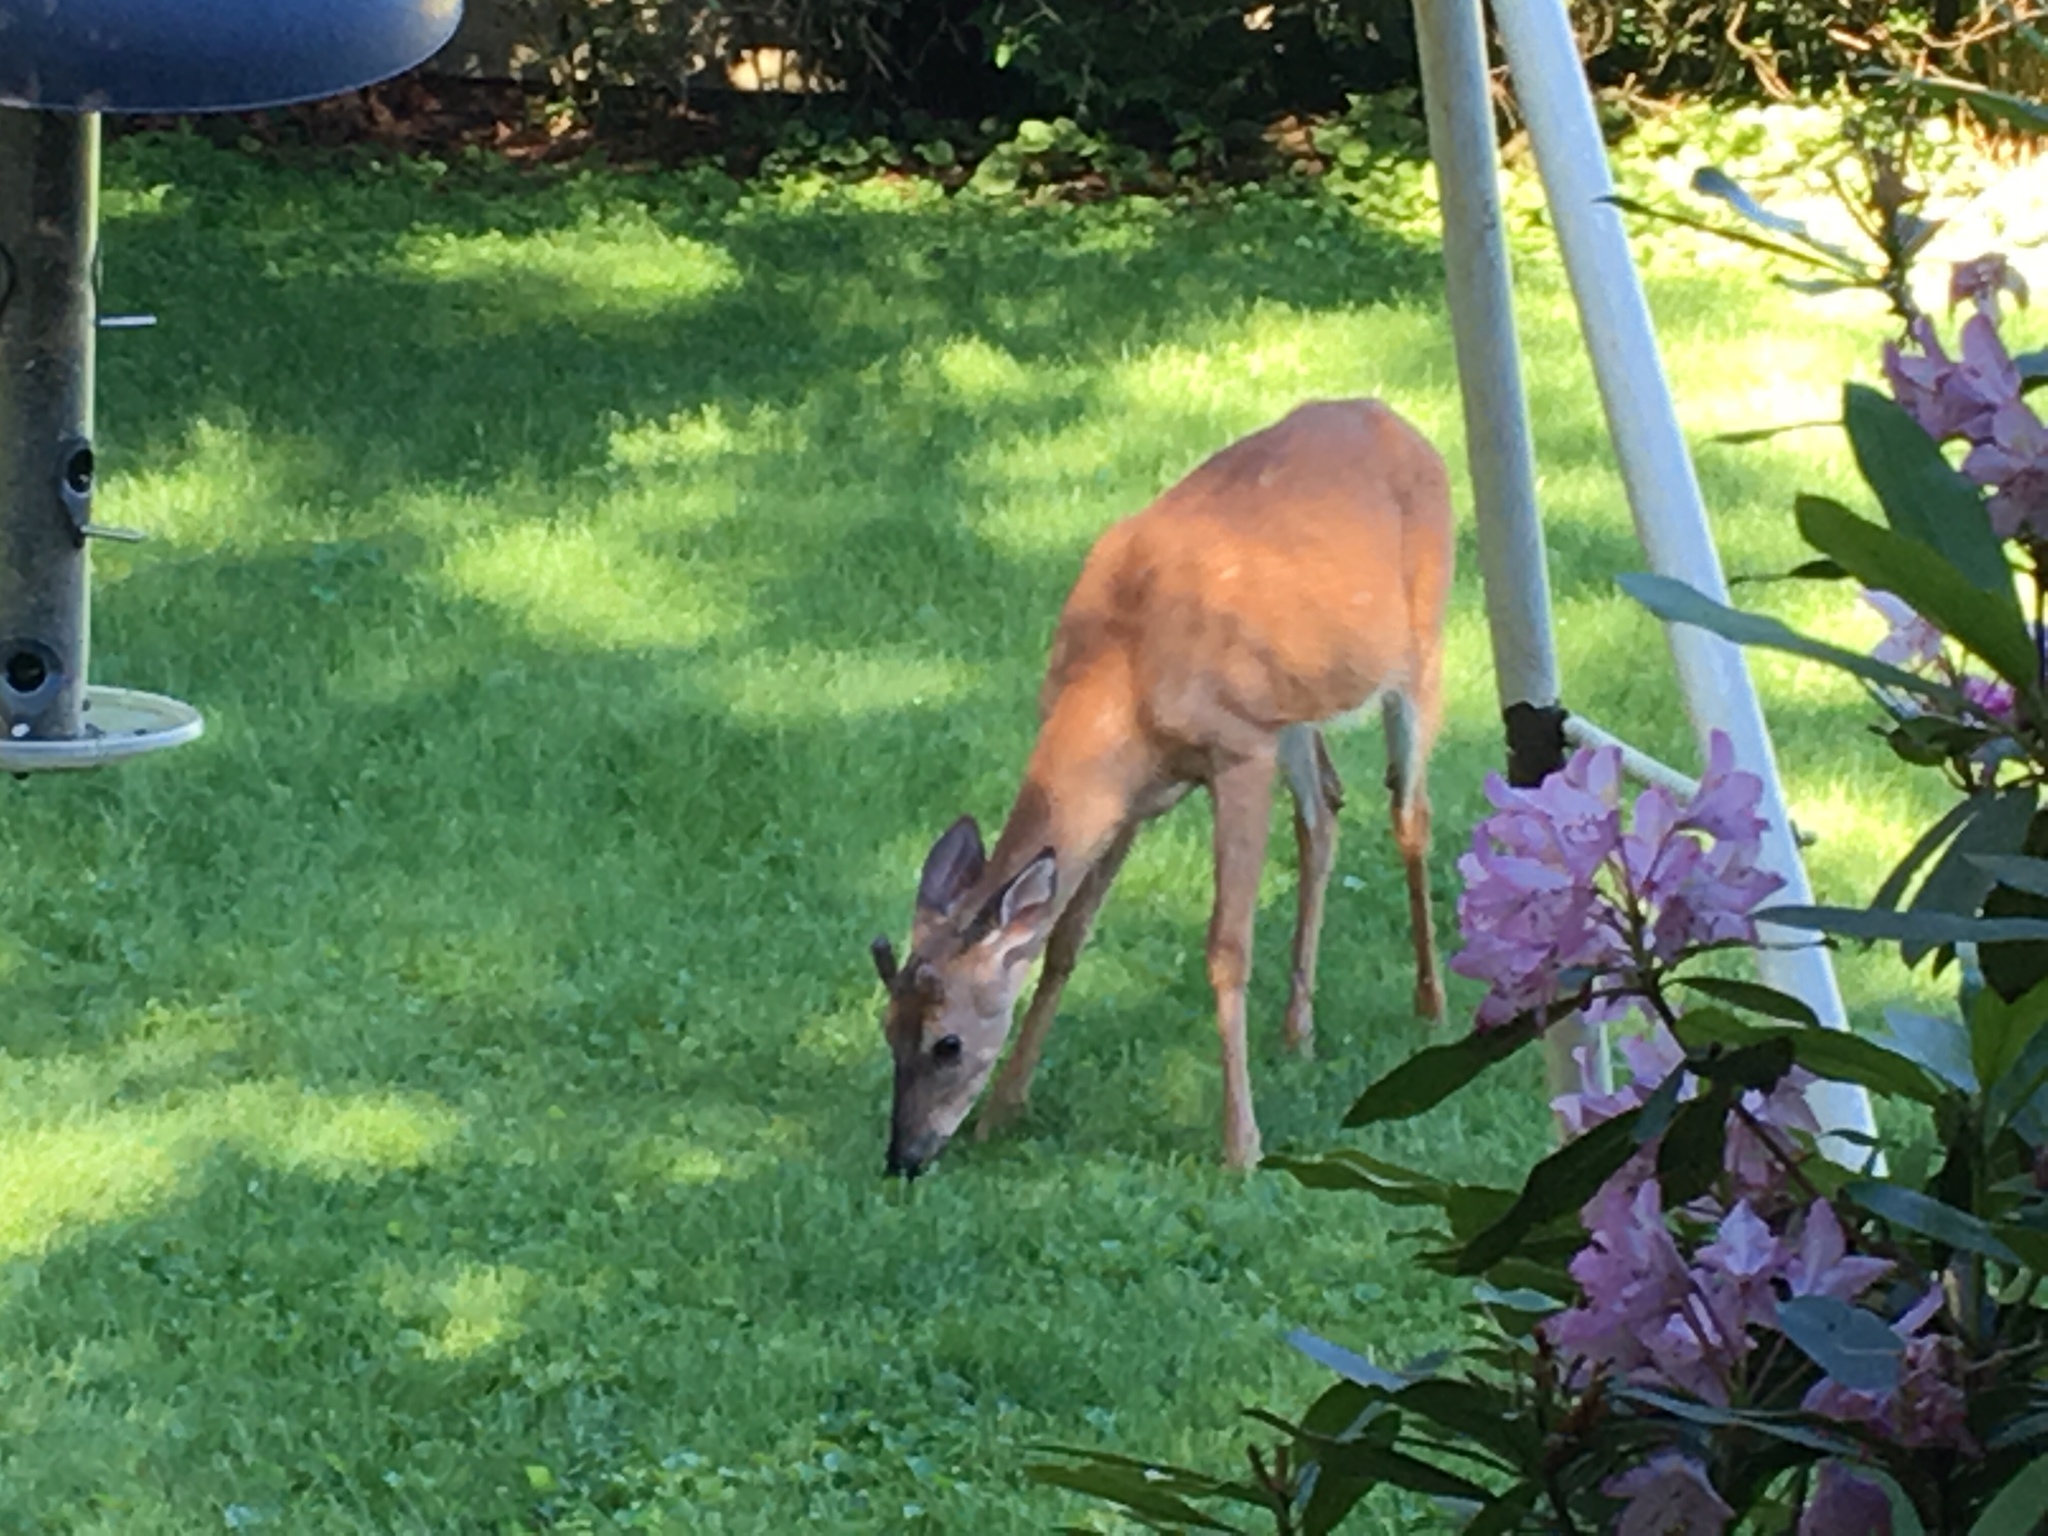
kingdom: Animalia
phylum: Chordata
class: Mammalia
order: Artiodactyla
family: Cervidae
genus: Odocoileus
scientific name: Odocoileus virginianus
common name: White-tailed deer
